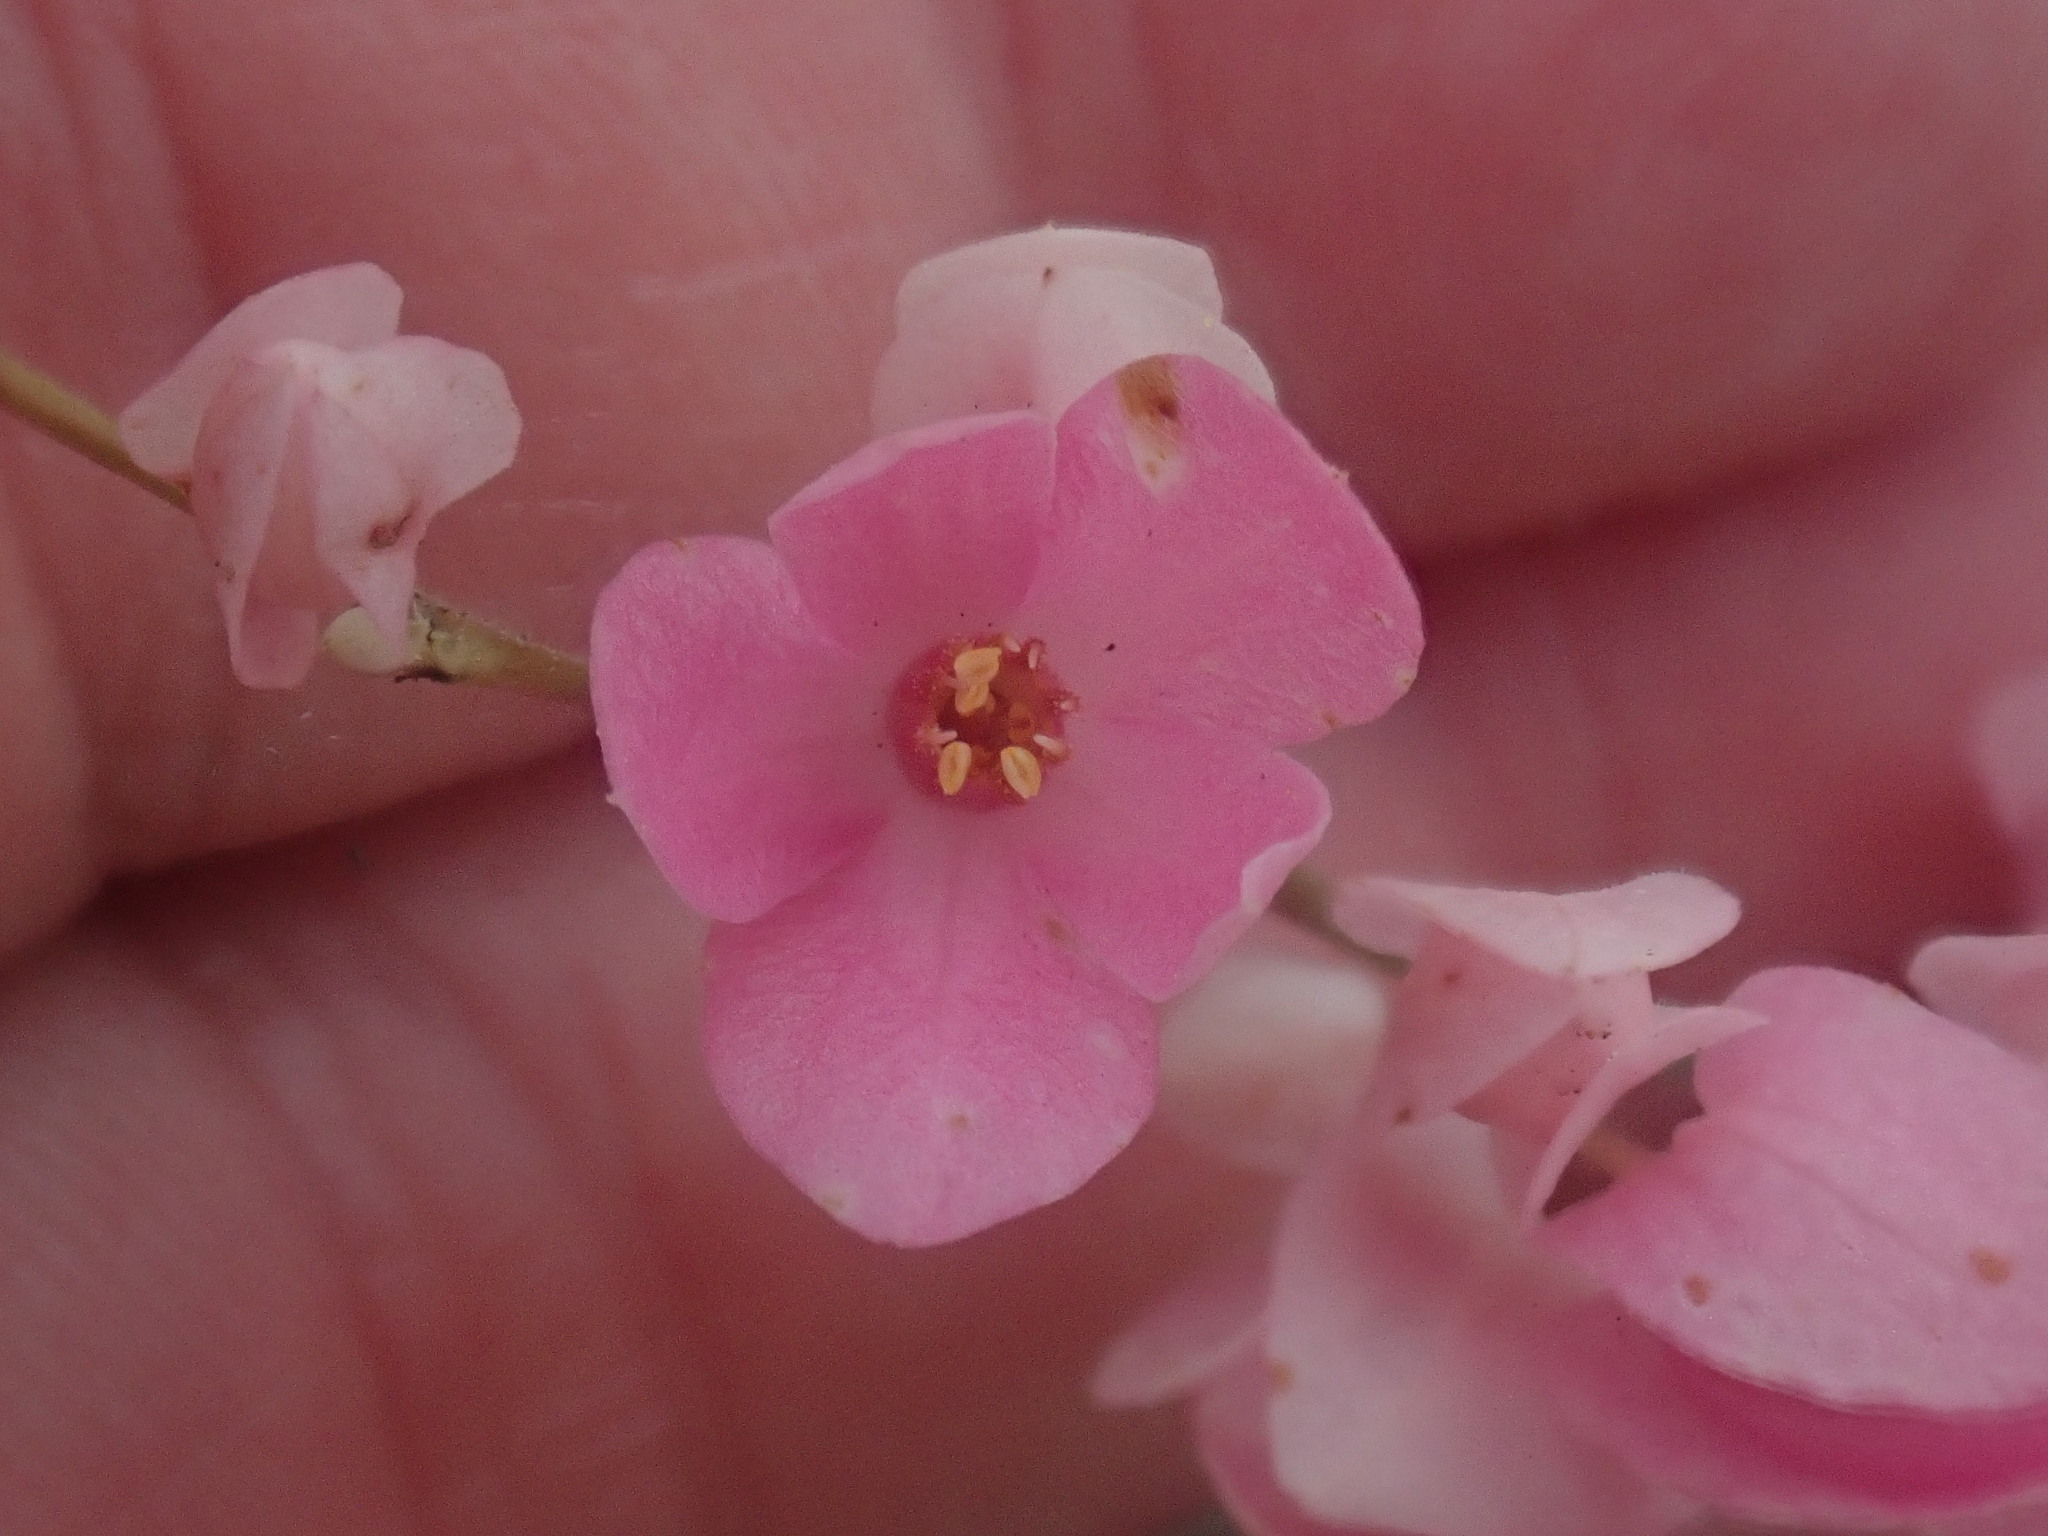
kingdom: Plantae
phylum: Tracheophyta
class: Magnoliopsida
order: Caryophyllales
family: Polygonaceae
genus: Antigonon
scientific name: Antigonon leptopus
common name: Coral vine
